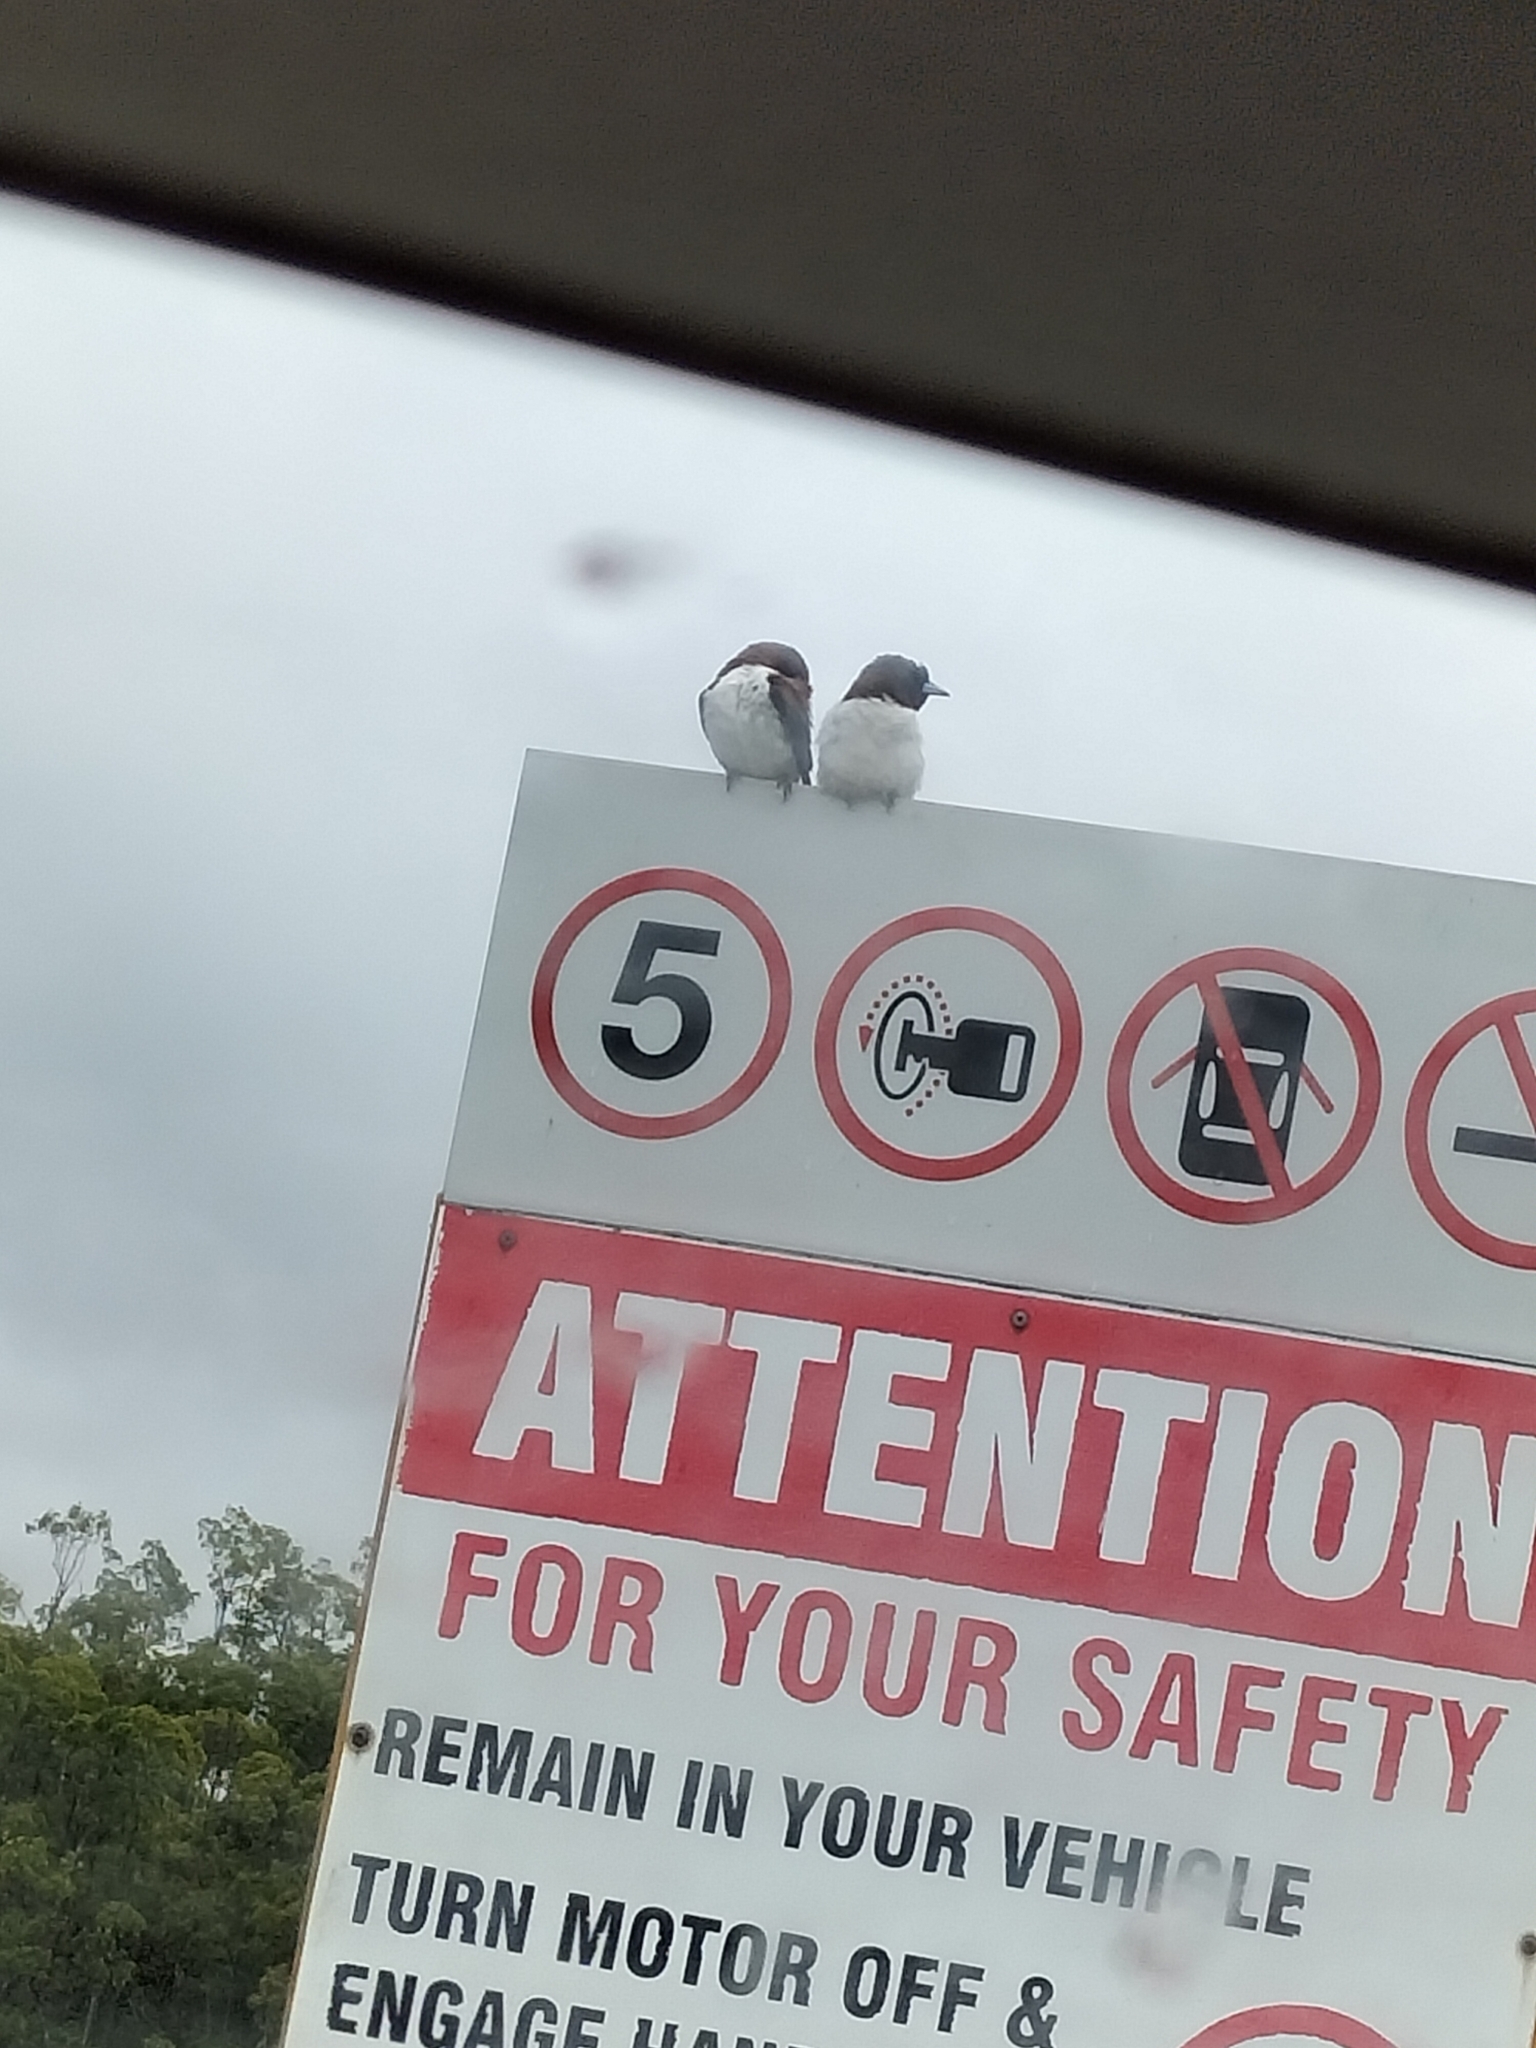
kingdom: Animalia
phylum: Chordata
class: Aves
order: Passeriformes
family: Artamidae
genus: Artamus
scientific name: Artamus leucoryn
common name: White-breasted woodswallow
